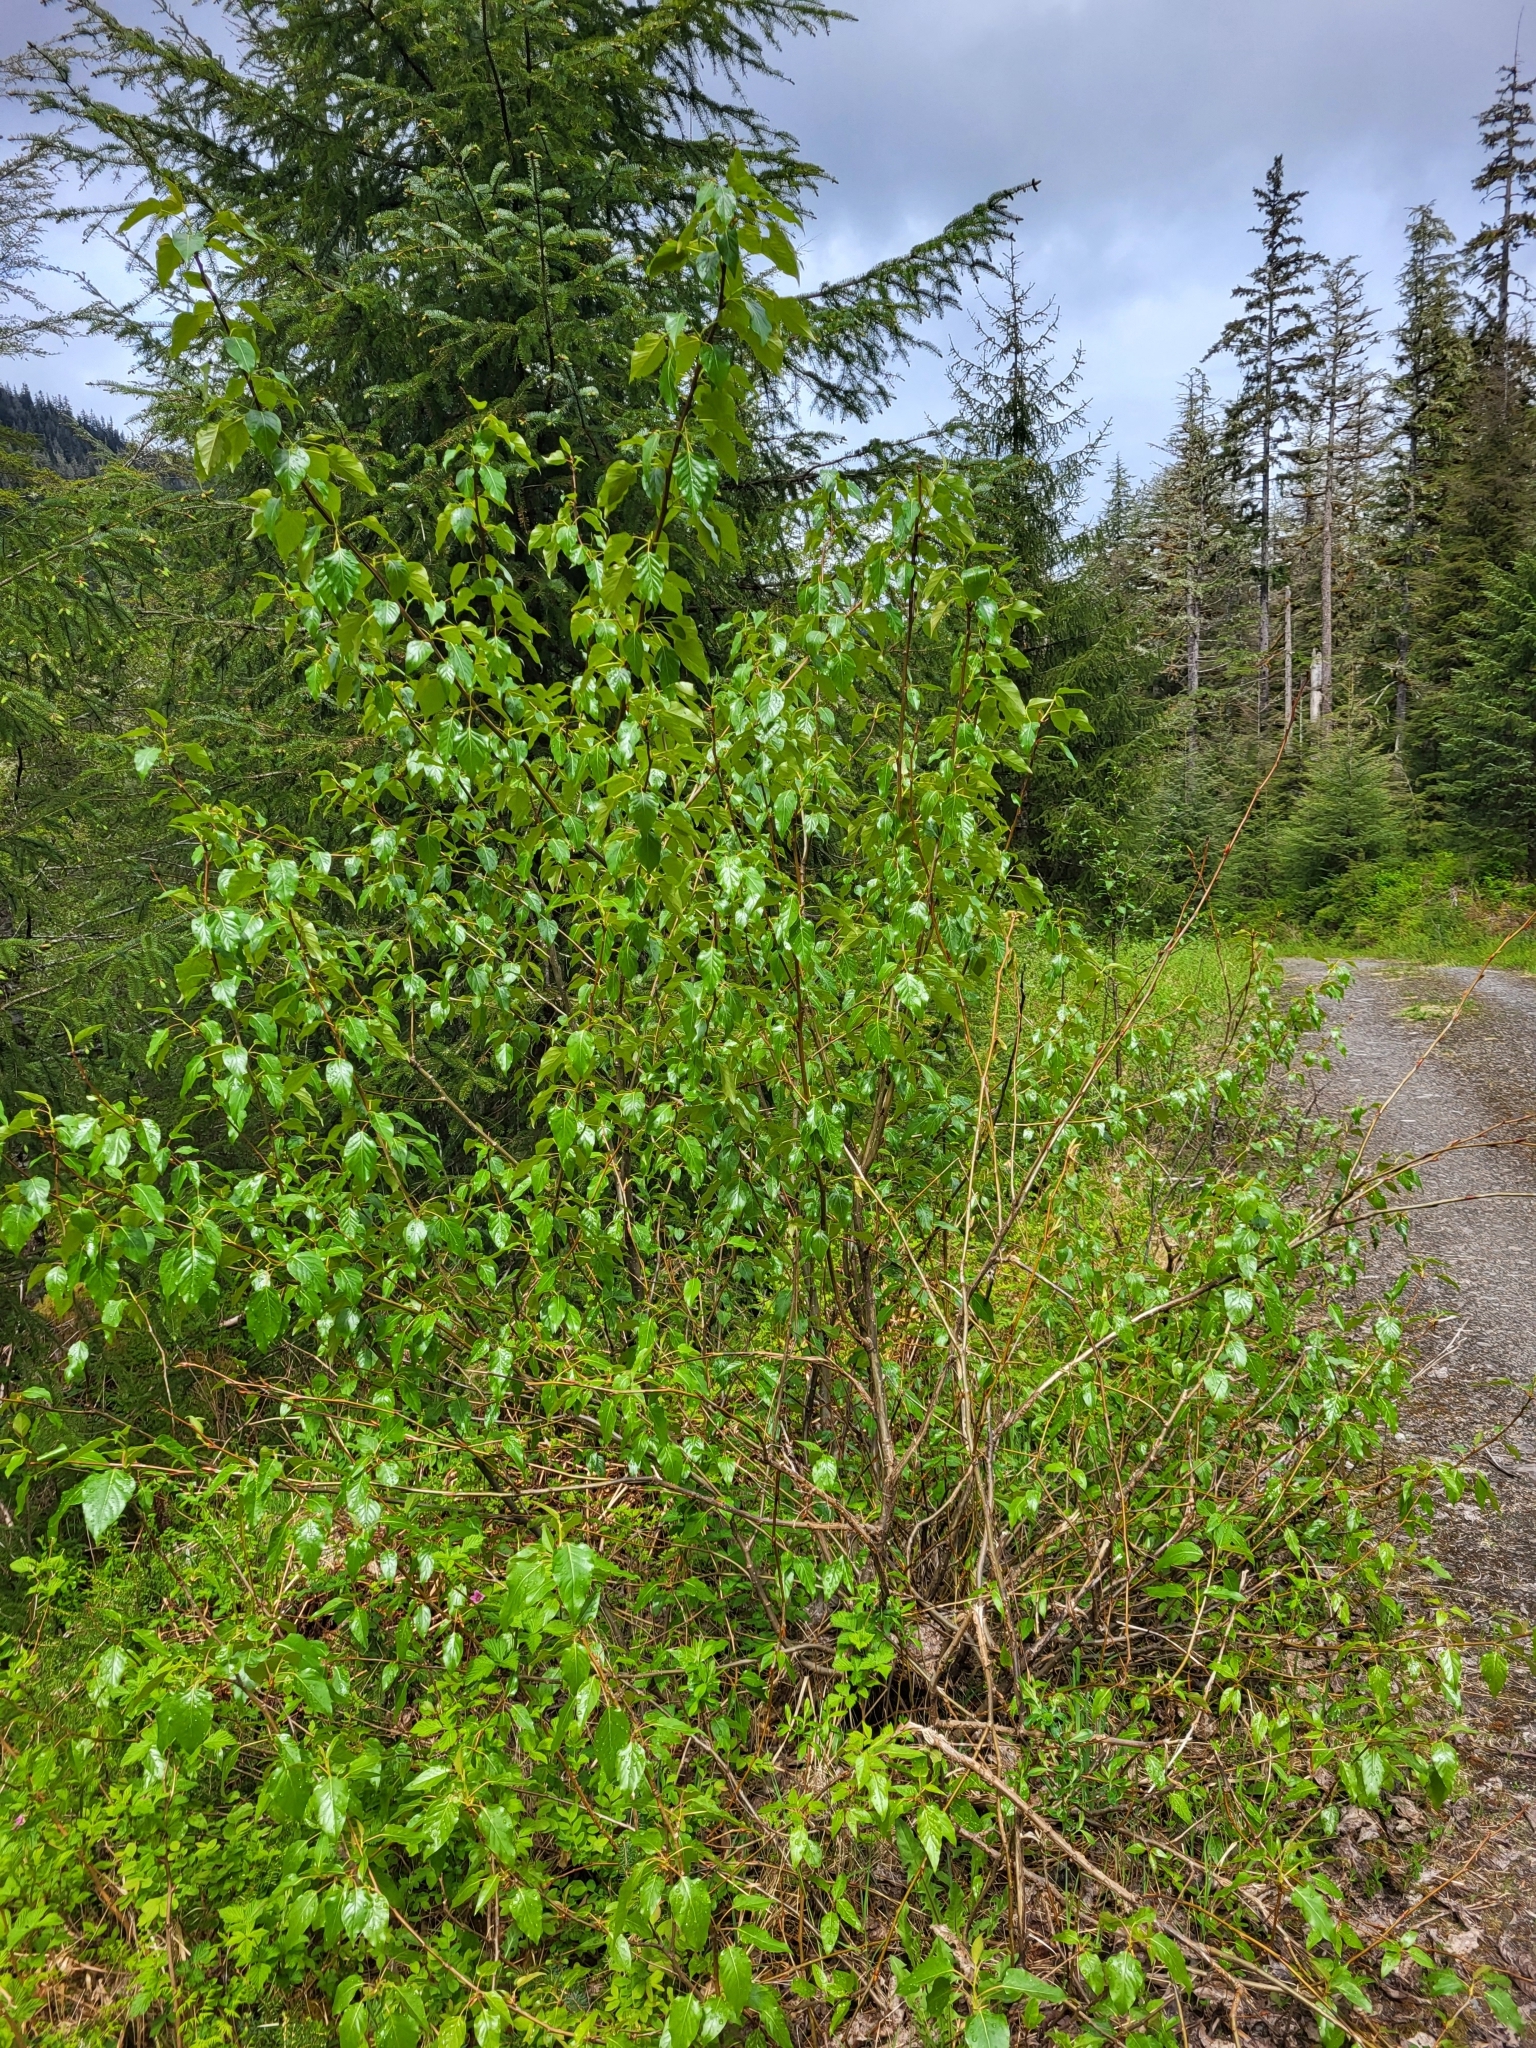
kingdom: Plantae
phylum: Tracheophyta
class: Magnoliopsida
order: Malpighiales
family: Salicaceae
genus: Populus
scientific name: Populus trichocarpa
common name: Black cottonwood
